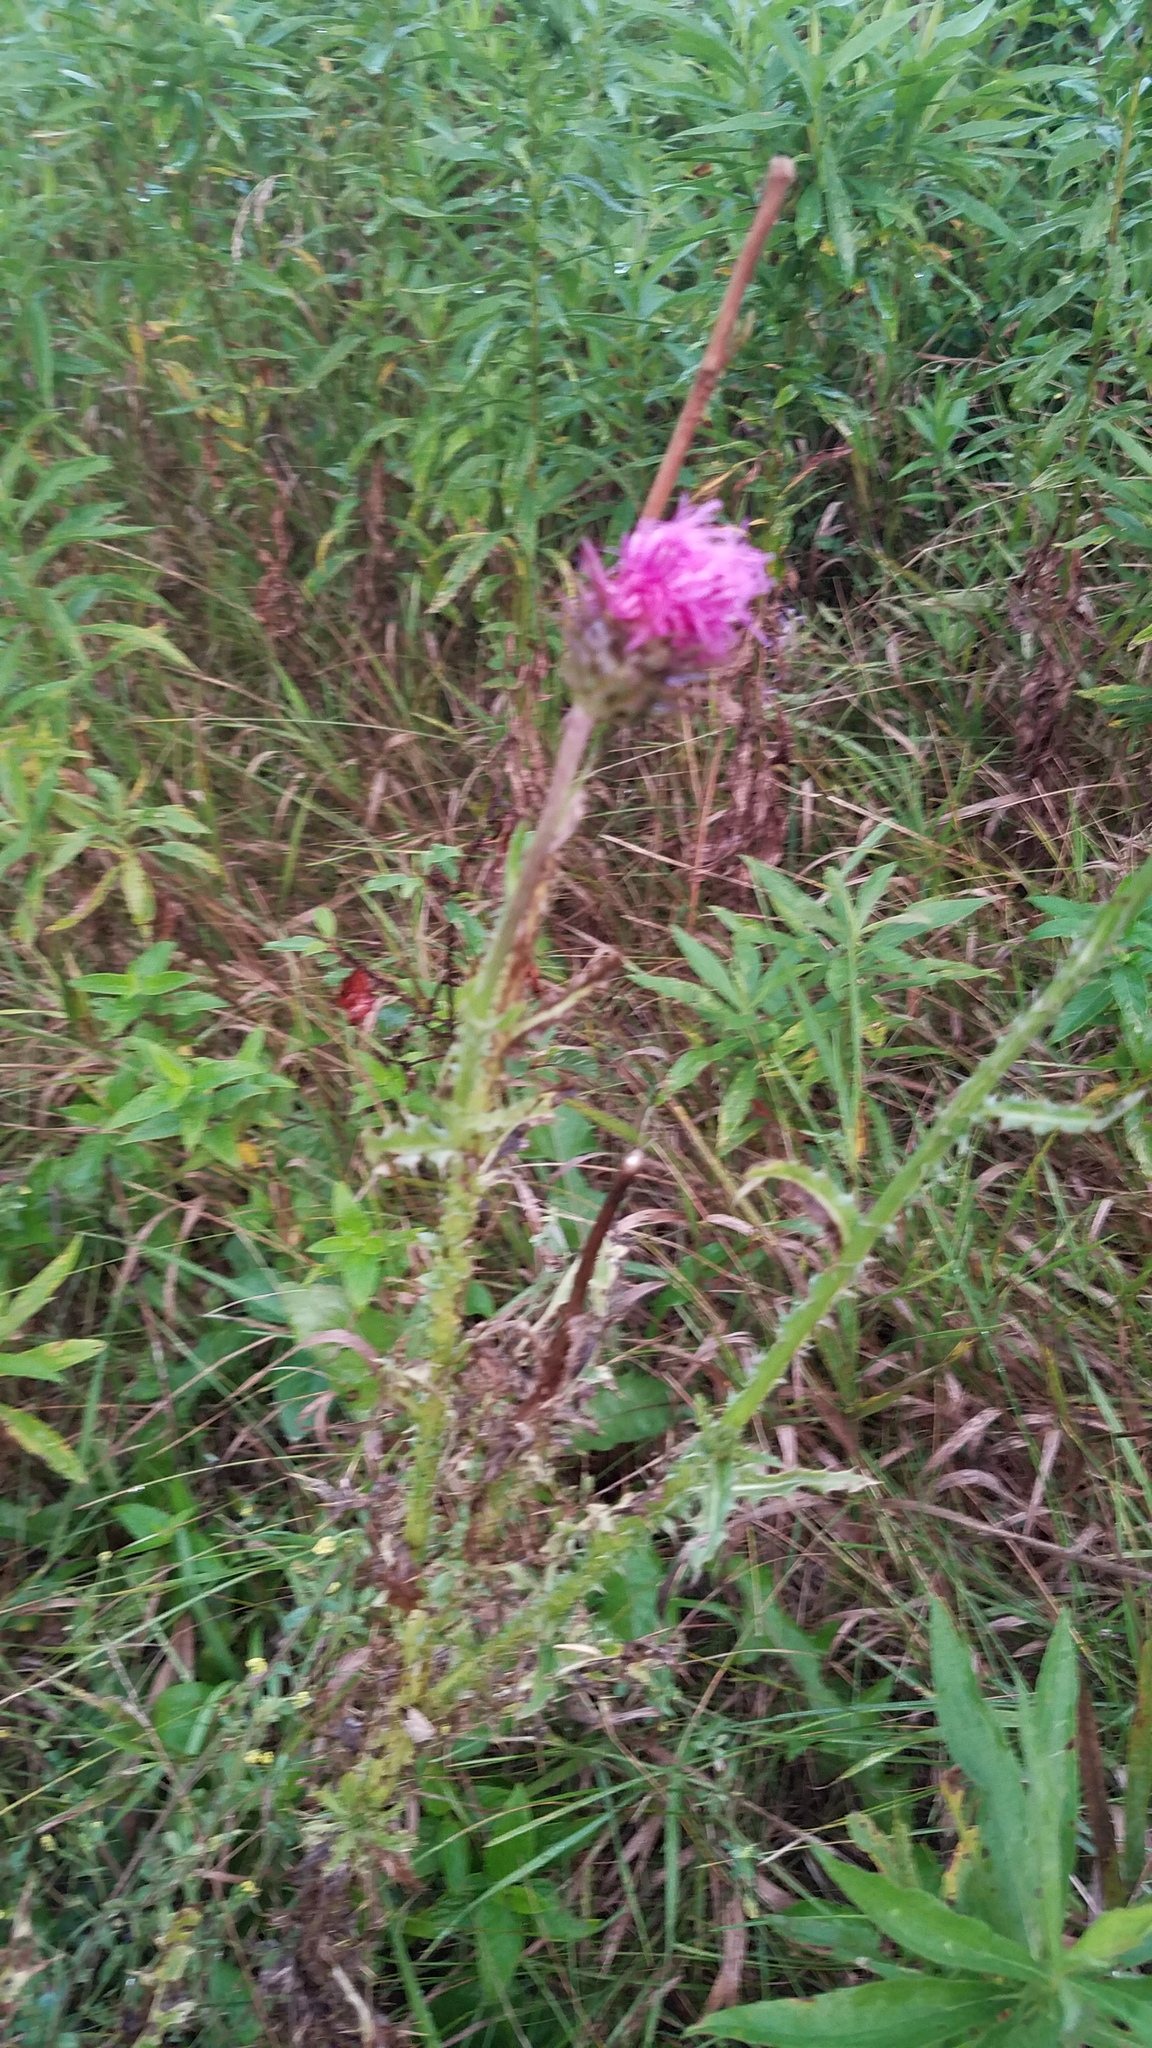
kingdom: Plantae
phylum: Tracheophyta
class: Magnoliopsida
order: Asterales
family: Asteraceae
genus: Carduus
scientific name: Carduus nutans
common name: Musk thistle
